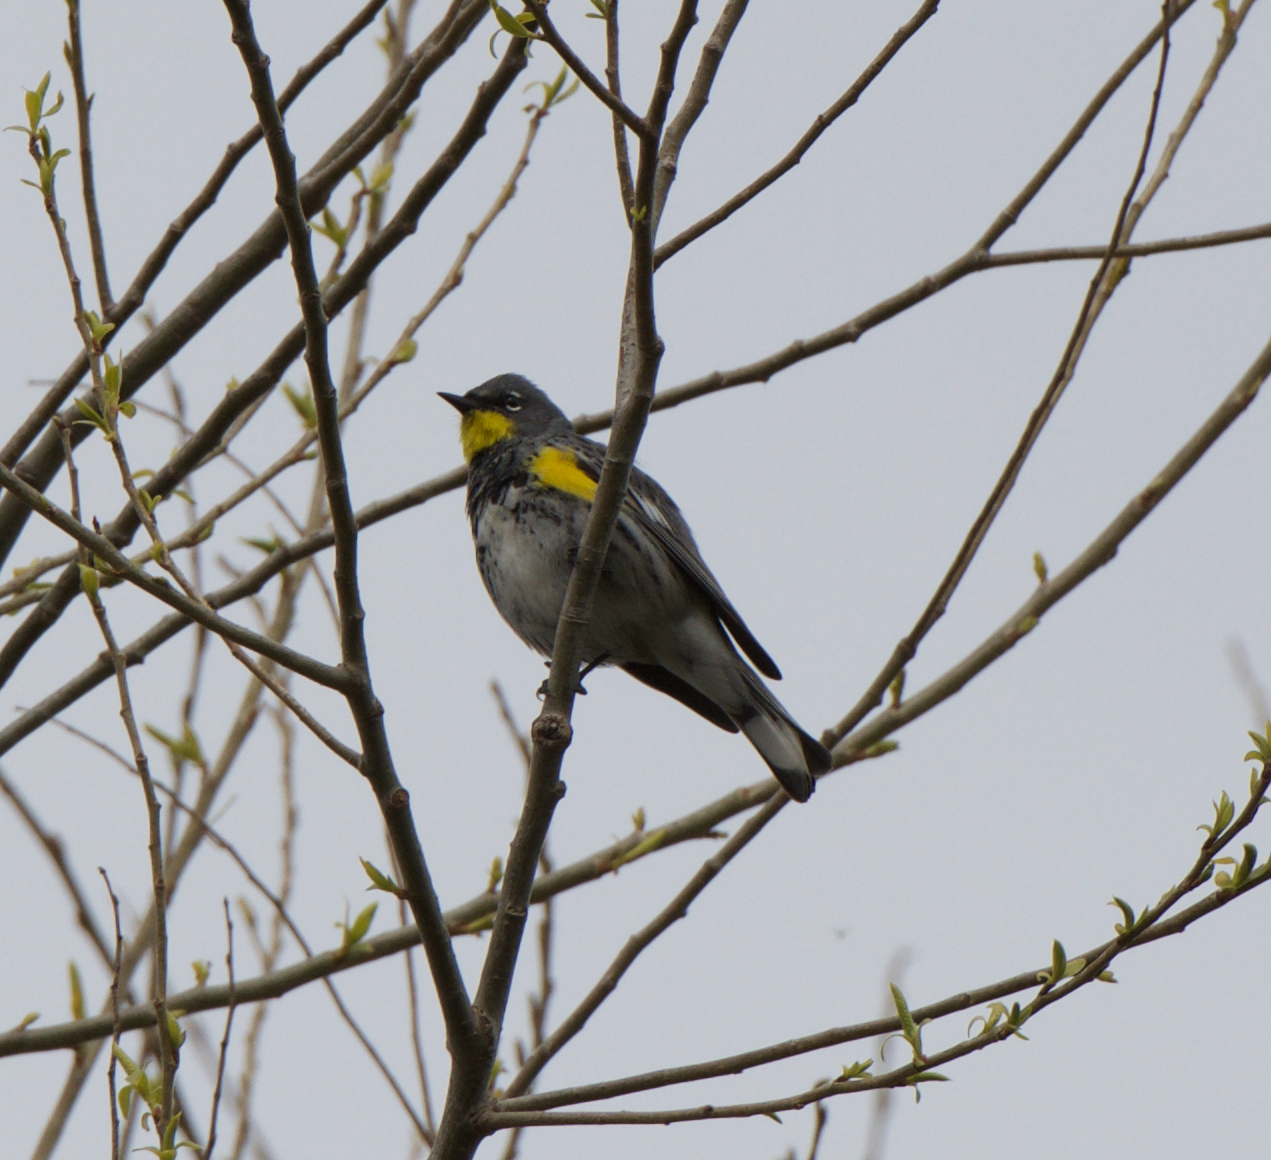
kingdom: Animalia
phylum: Chordata
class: Aves
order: Passeriformes
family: Parulidae
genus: Setophaga
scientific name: Setophaga coronata
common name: Myrtle warbler
